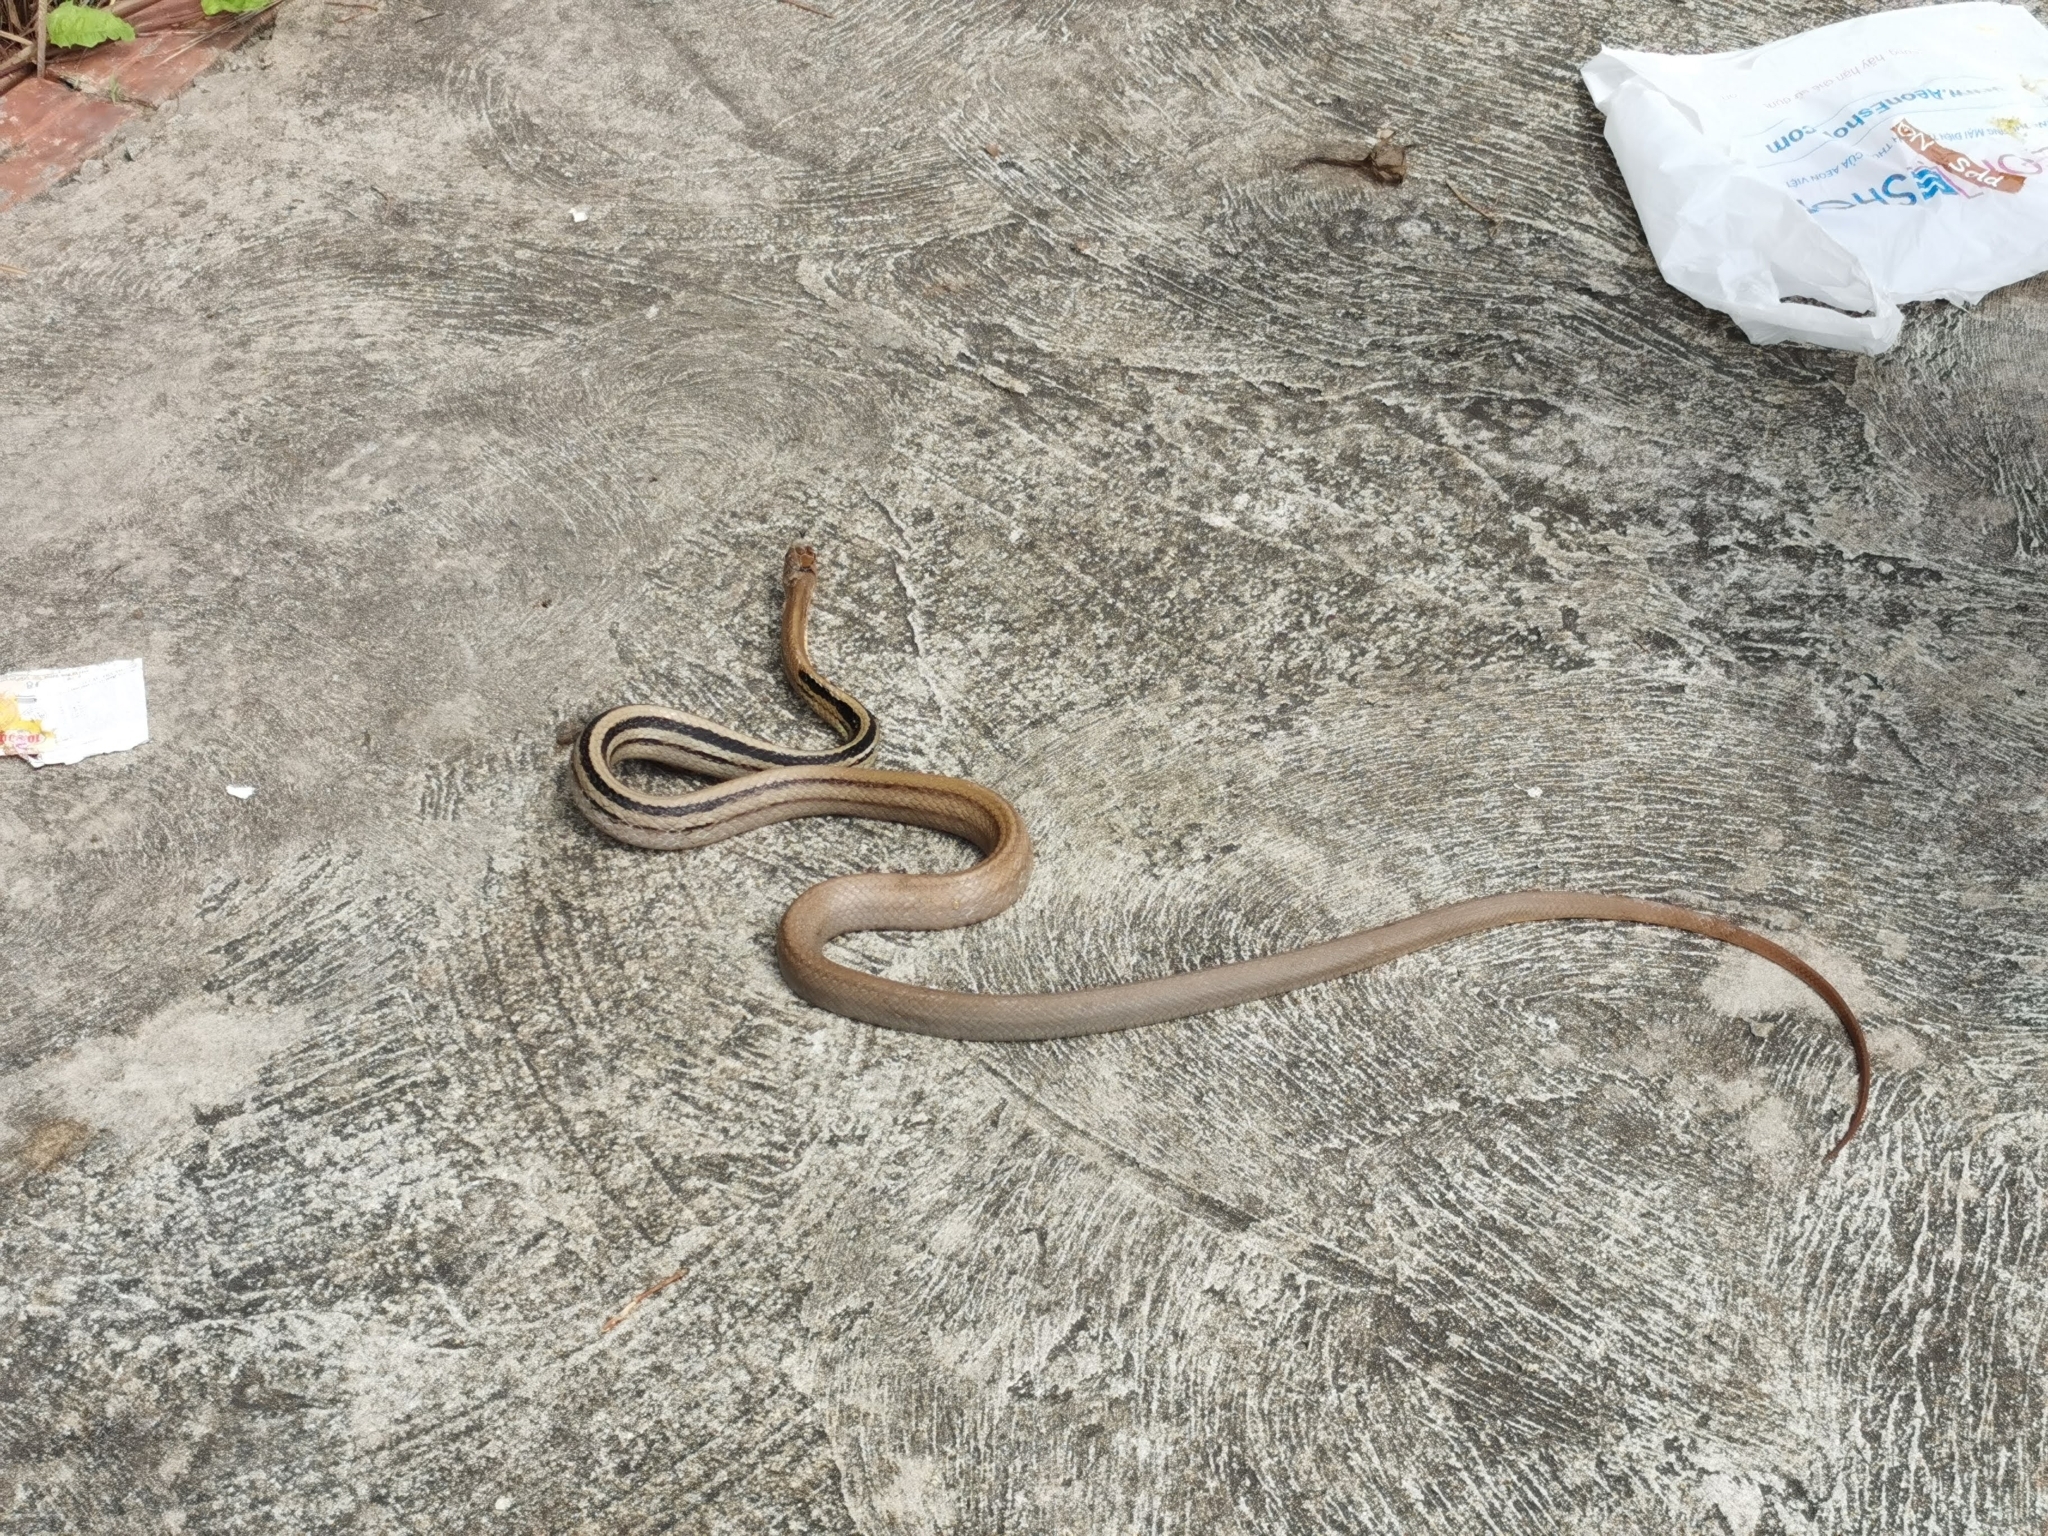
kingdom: Animalia
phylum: Chordata
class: Squamata
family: Colubridae
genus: Coelognathus
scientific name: Coelognathus radiatus
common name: Copperhead rat snake
